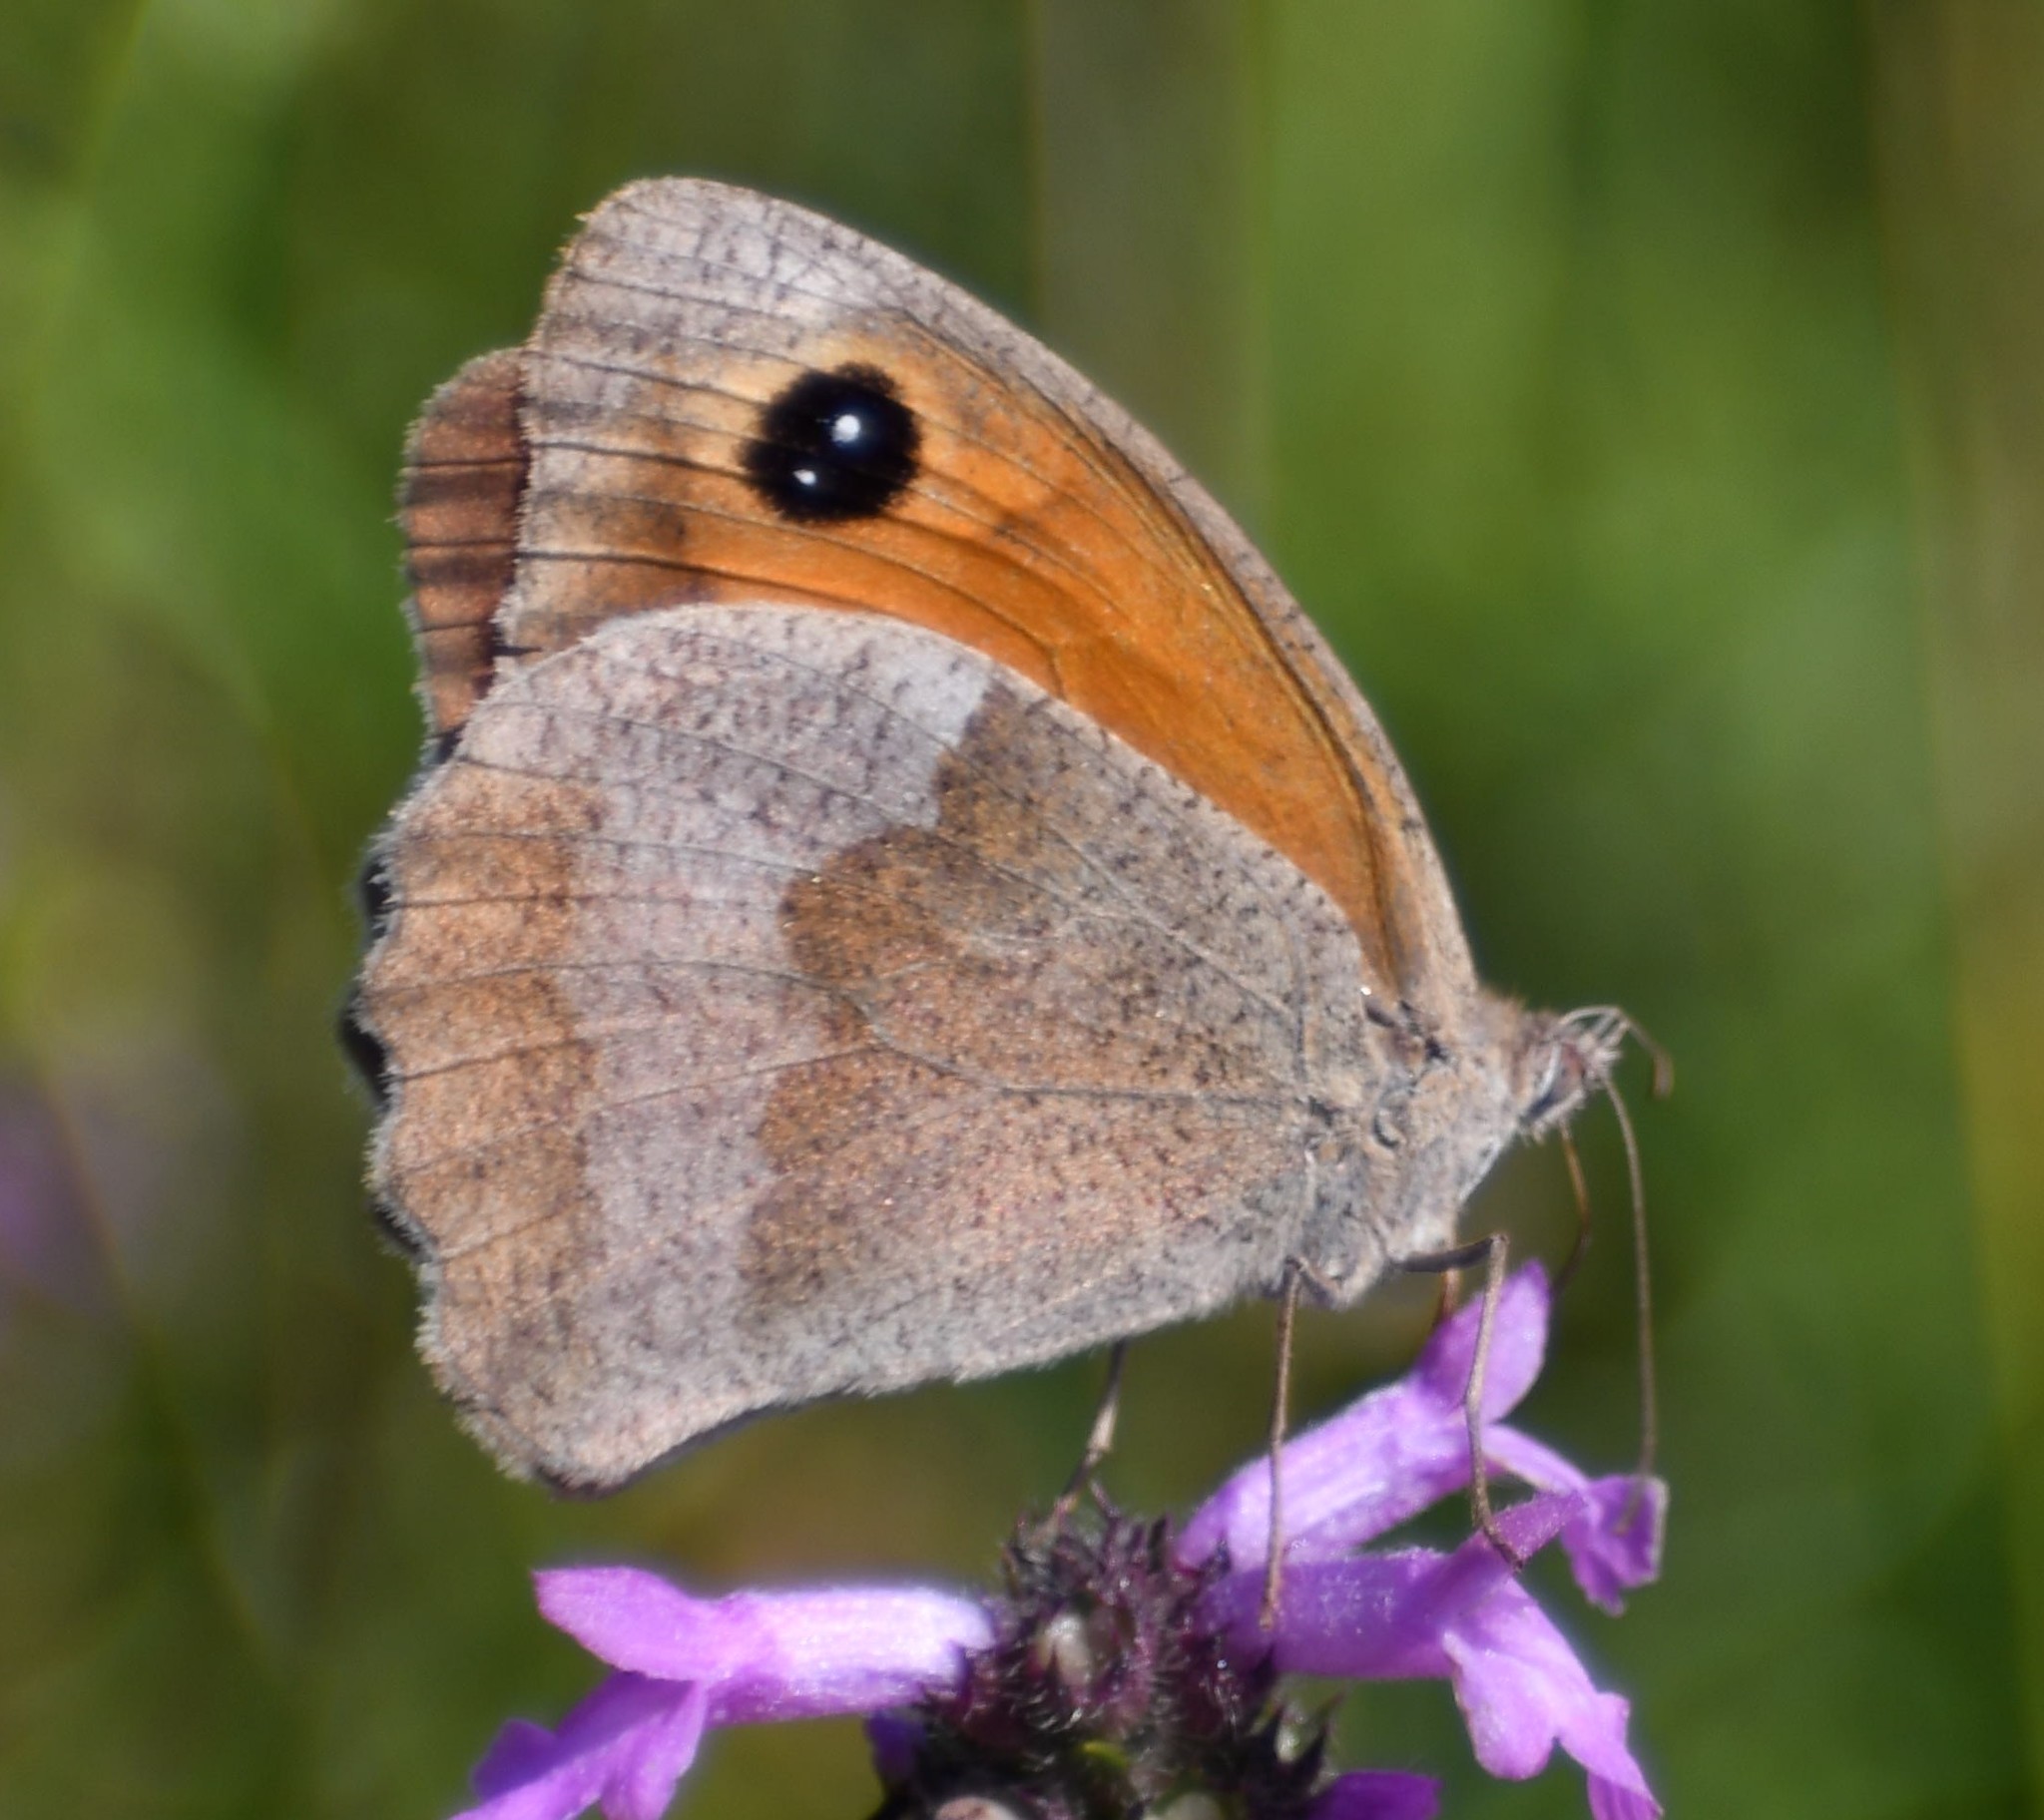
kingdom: Animalia
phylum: Arthropoda
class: Insecta
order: Lepidoptera
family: Nymphalidae
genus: Maniola
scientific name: Maniola jurtina
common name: Meadow brown
